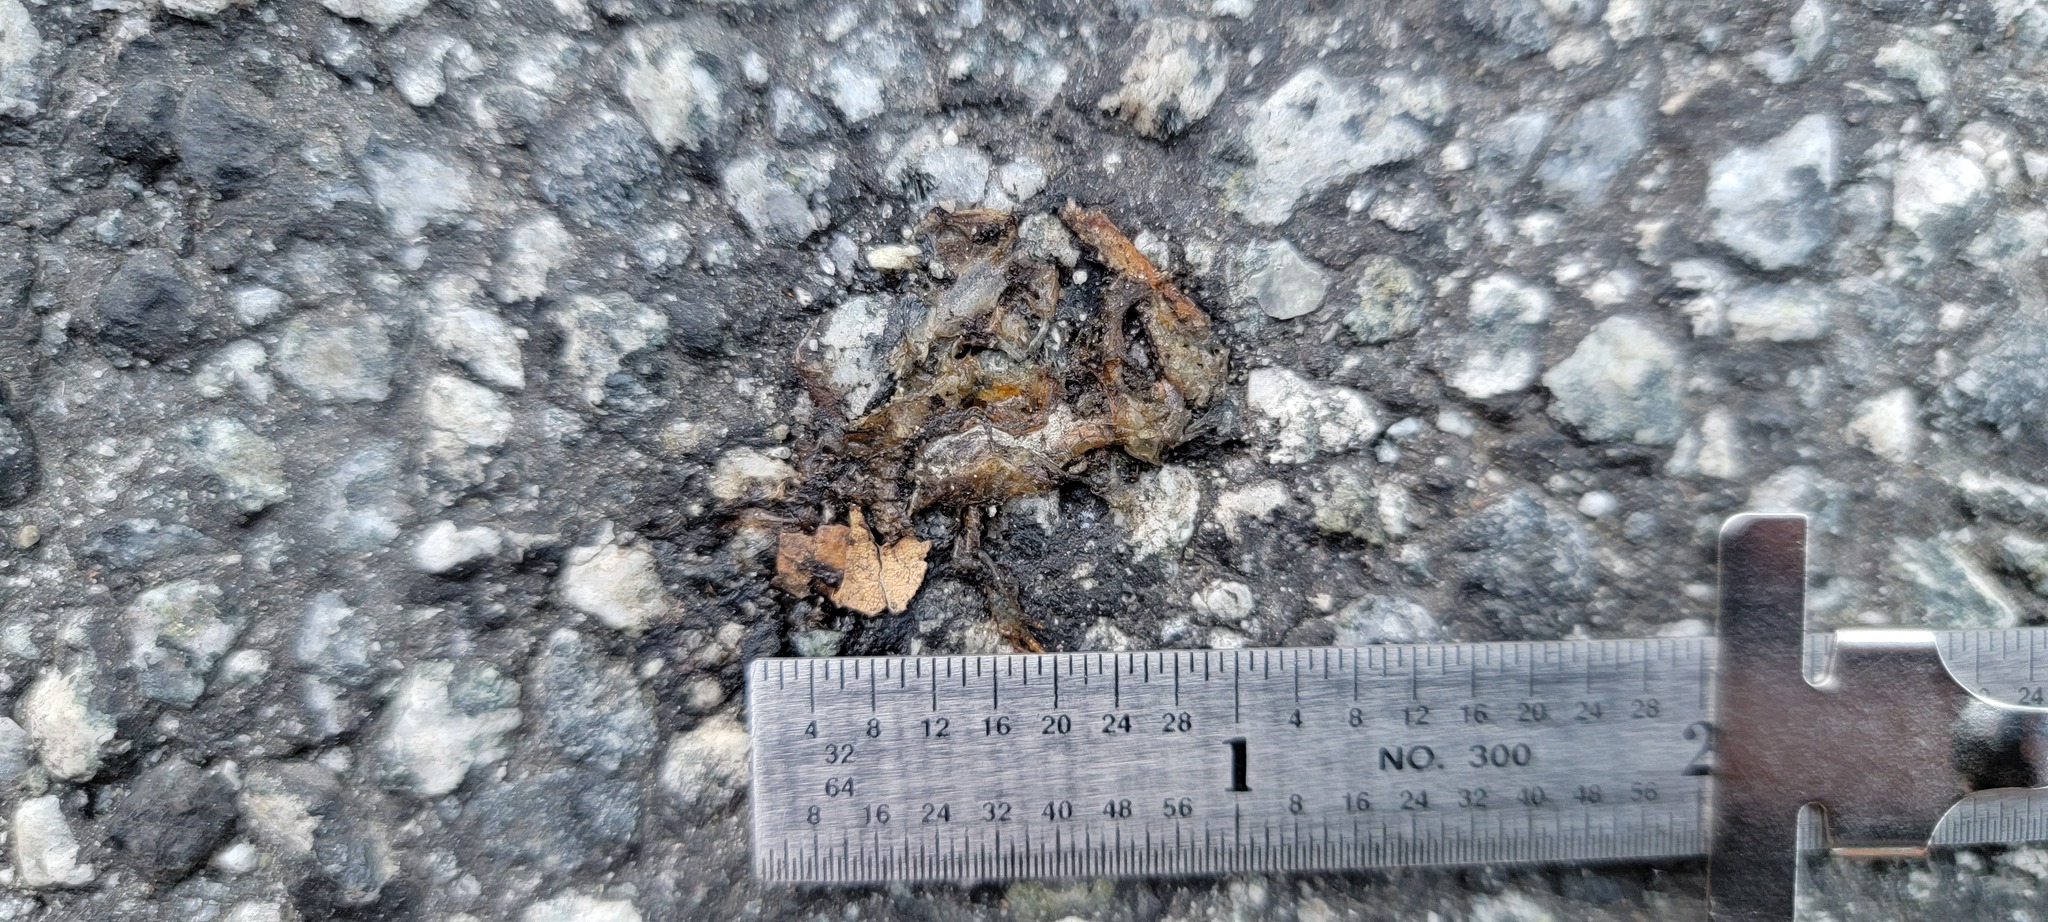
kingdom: Animalia
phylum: Chordata
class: Amphibia
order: Caudata
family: Salamandridae
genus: Taricha
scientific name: Taricha
